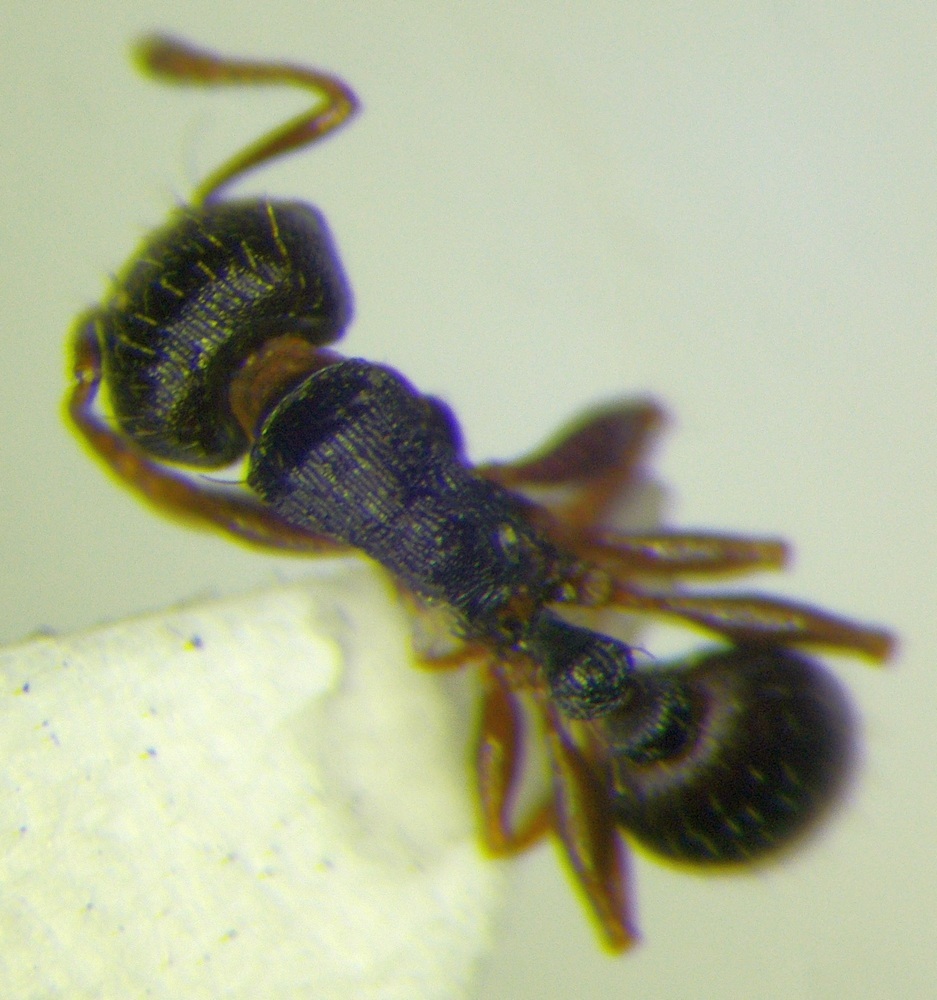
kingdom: Animalia
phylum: Arthropoda
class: Insecta
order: Hymenoptera
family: Formicidae
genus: Tetramorium
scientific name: Tetramorium striativentre
